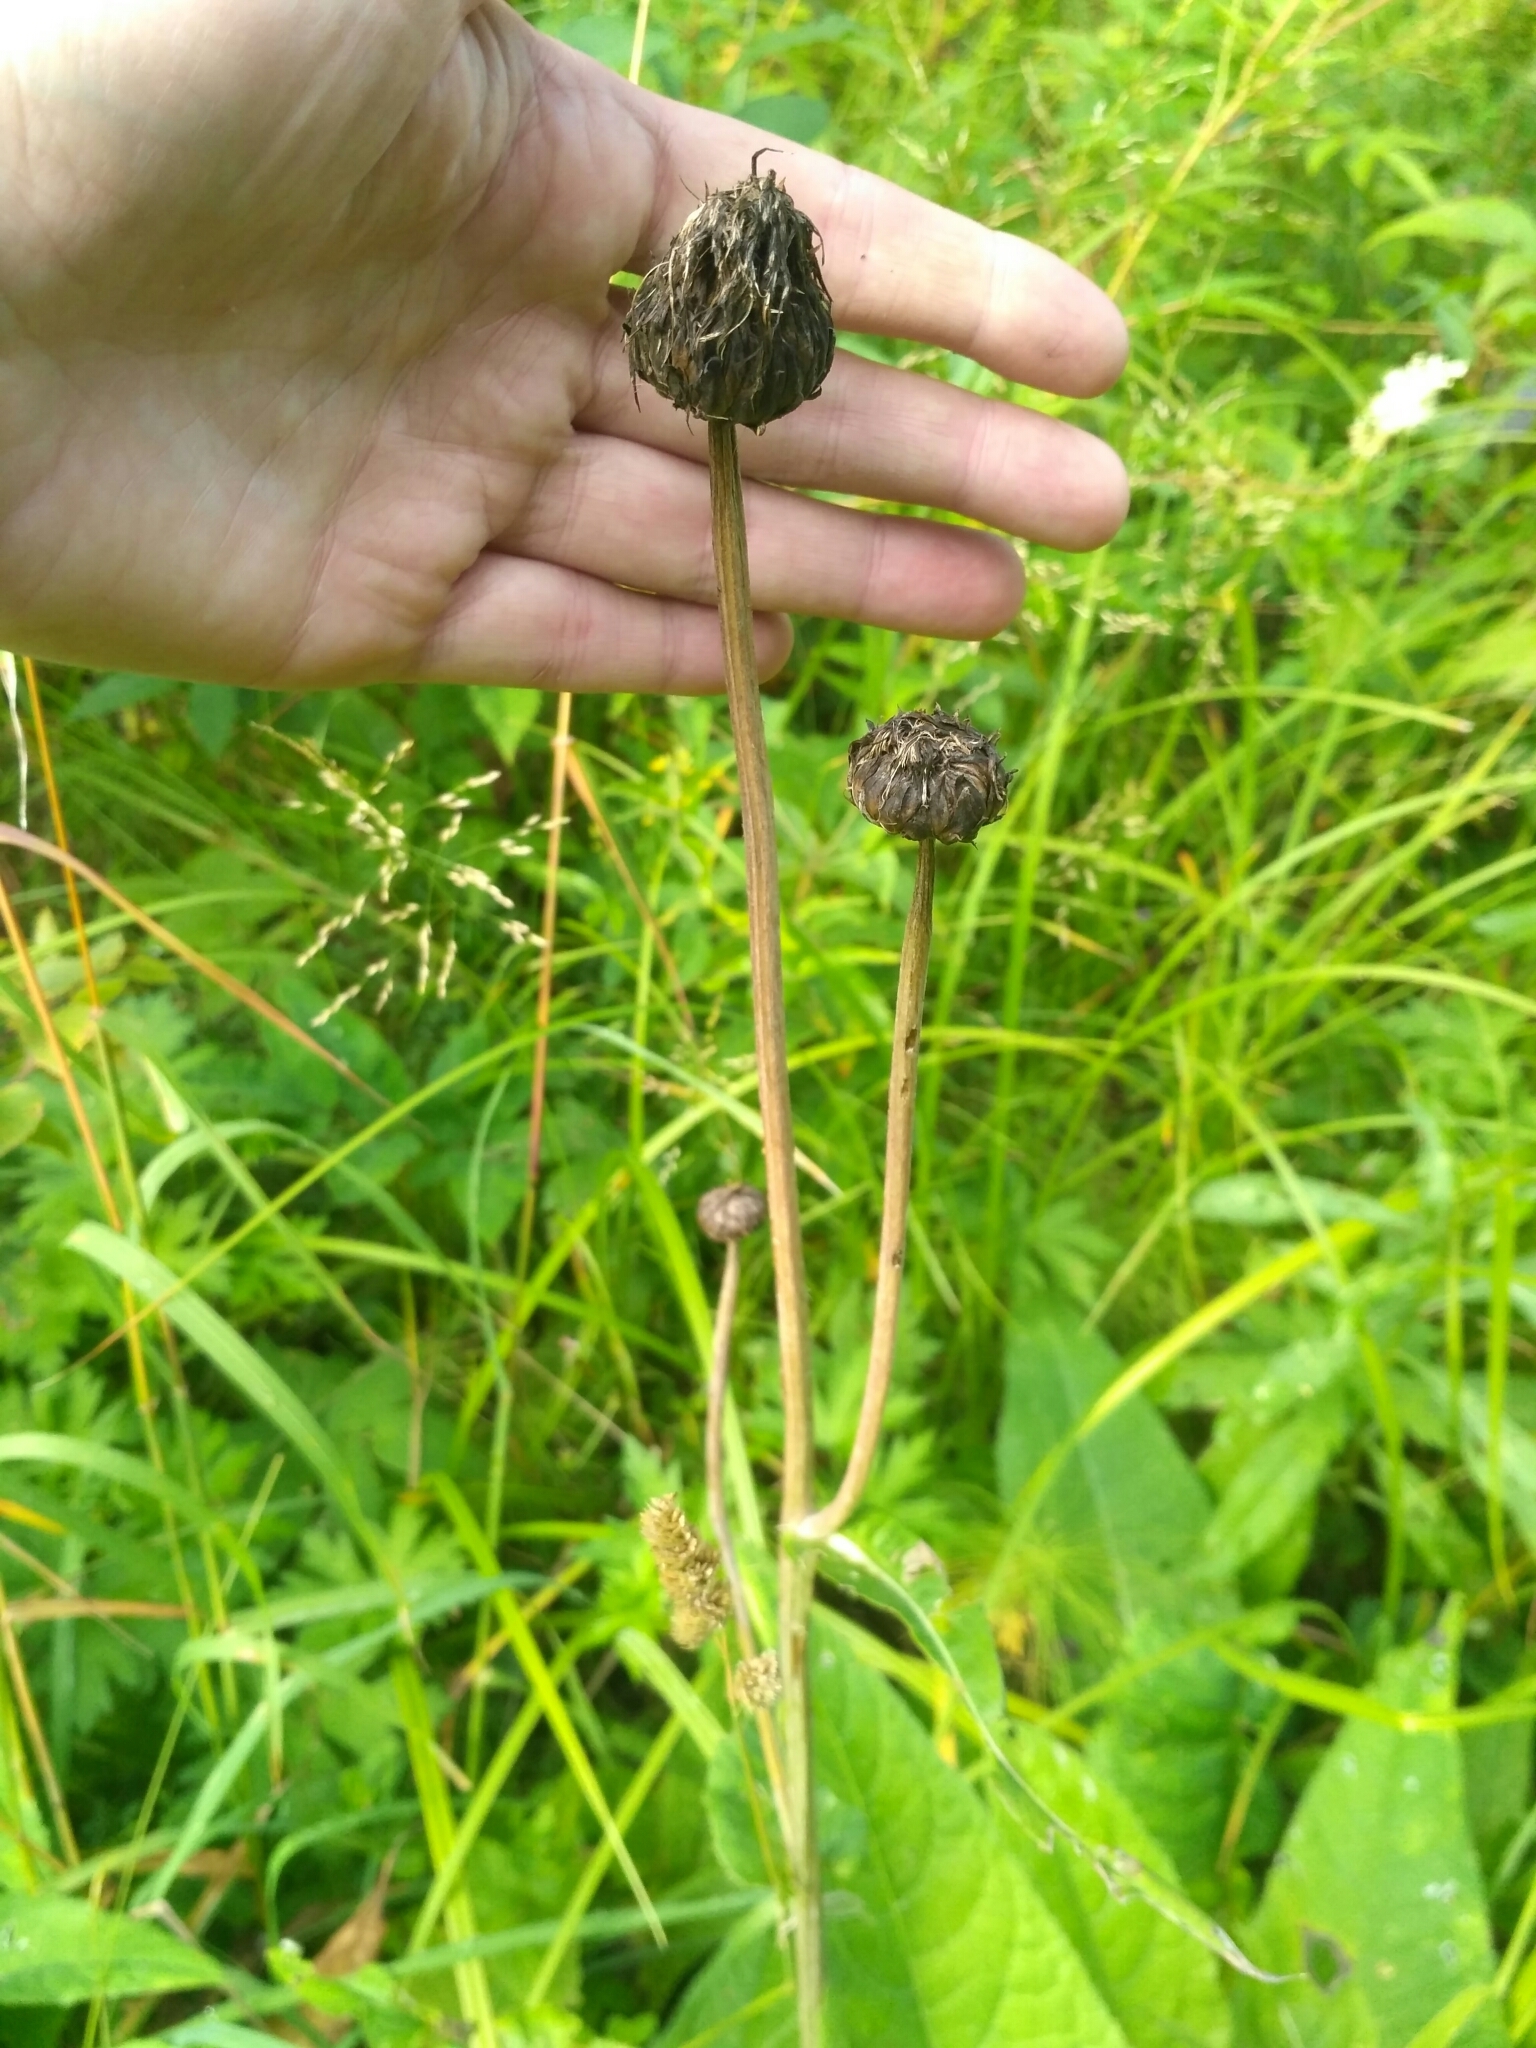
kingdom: Plantae
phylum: Tracheophyta
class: Magnoliopsida
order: Asterales
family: Asteraceae
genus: Cirsium
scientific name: Cirsium heterophyllum
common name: Melancholy thistle
